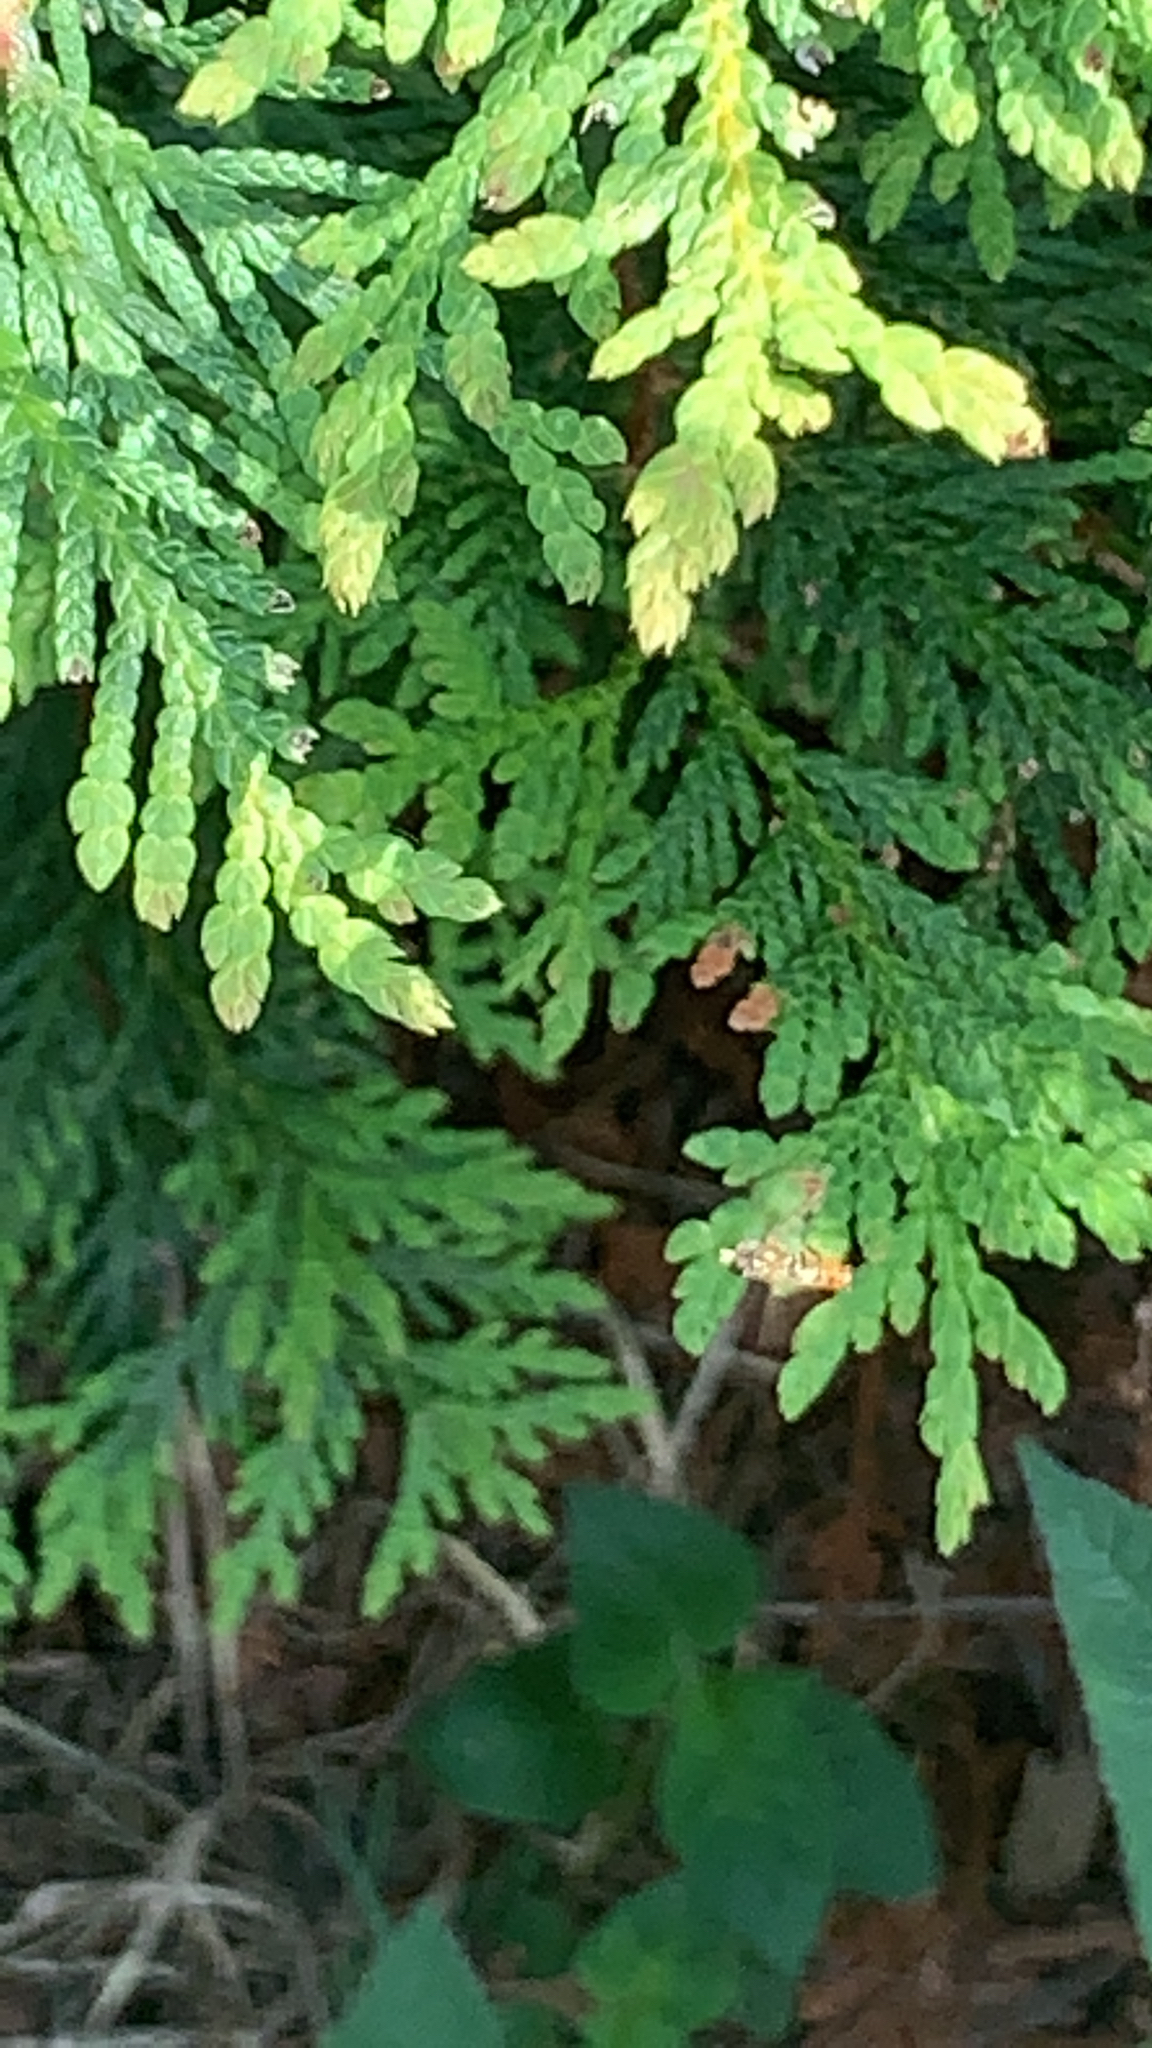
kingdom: Animalia
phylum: Arthropoda
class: Insecta
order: Diptera
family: Syrphidae
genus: Toxomerus
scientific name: Toxomerus marginatus
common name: Syrphid fly
